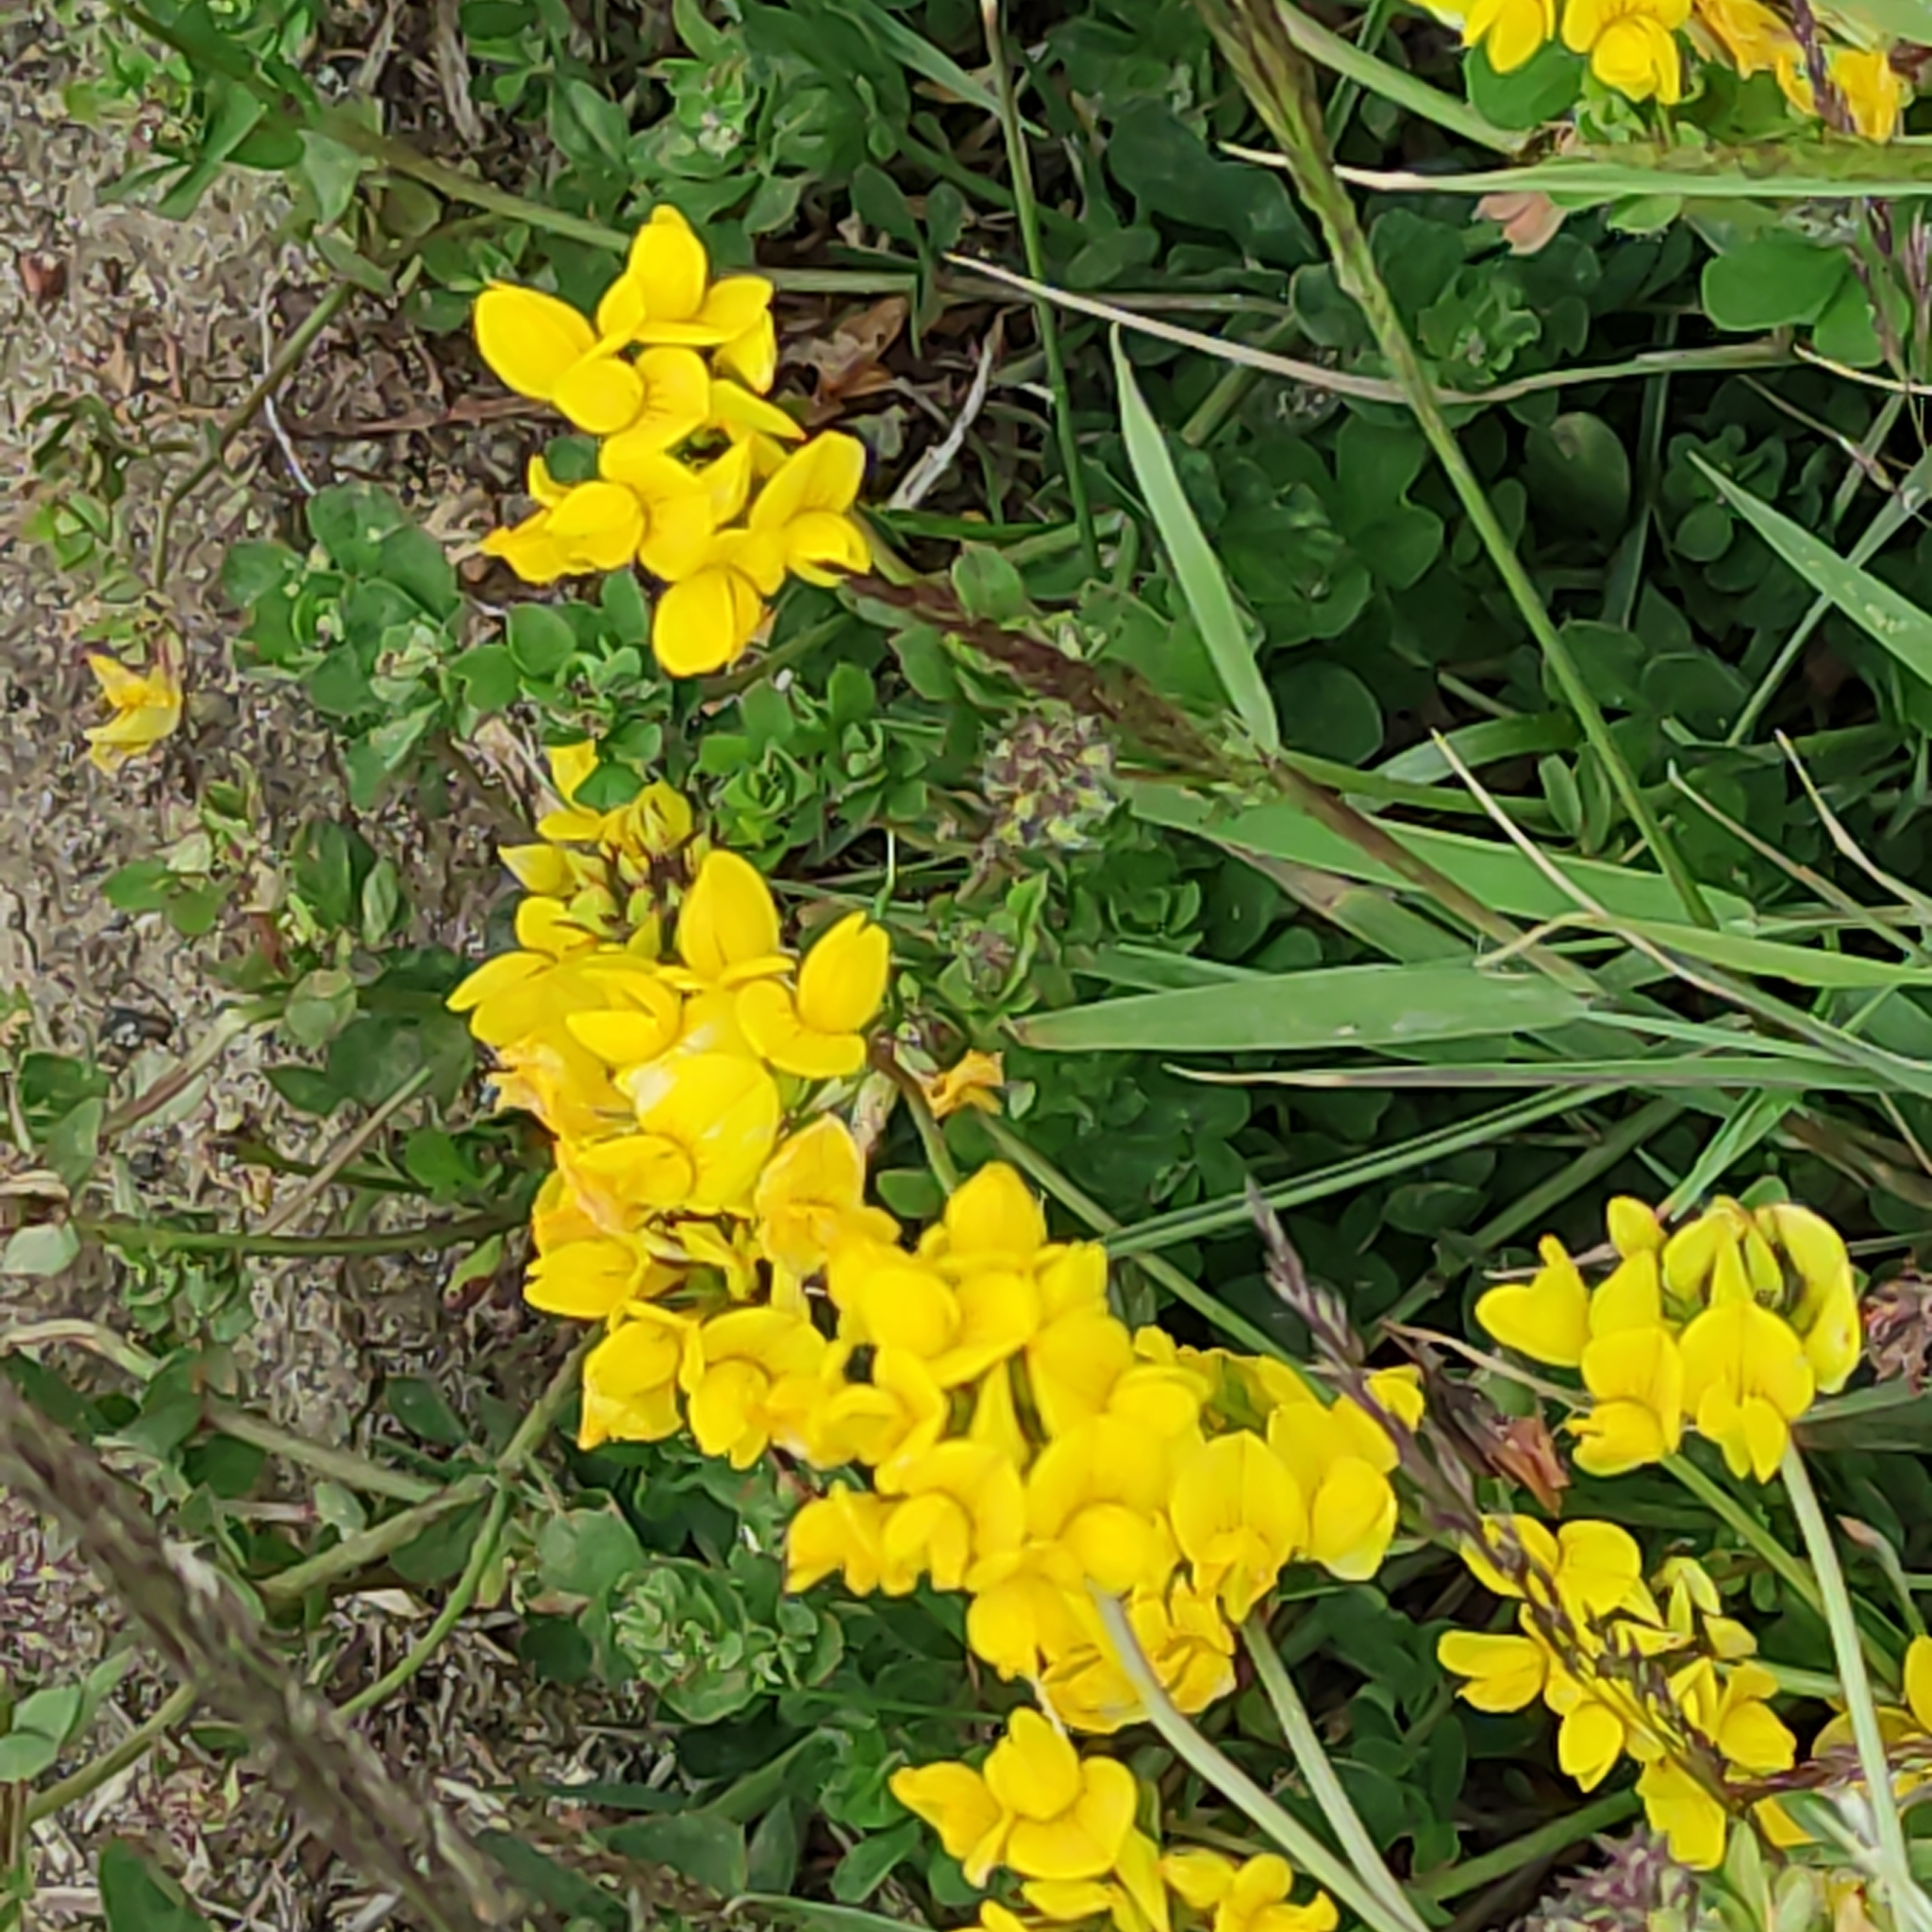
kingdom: Plantae
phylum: Tracheophyta
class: Magnoliopsida
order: Fabales
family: Fabaceae
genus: Lotus
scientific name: Lotus pedunculatus
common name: Greater birdsfoot-trefoil
